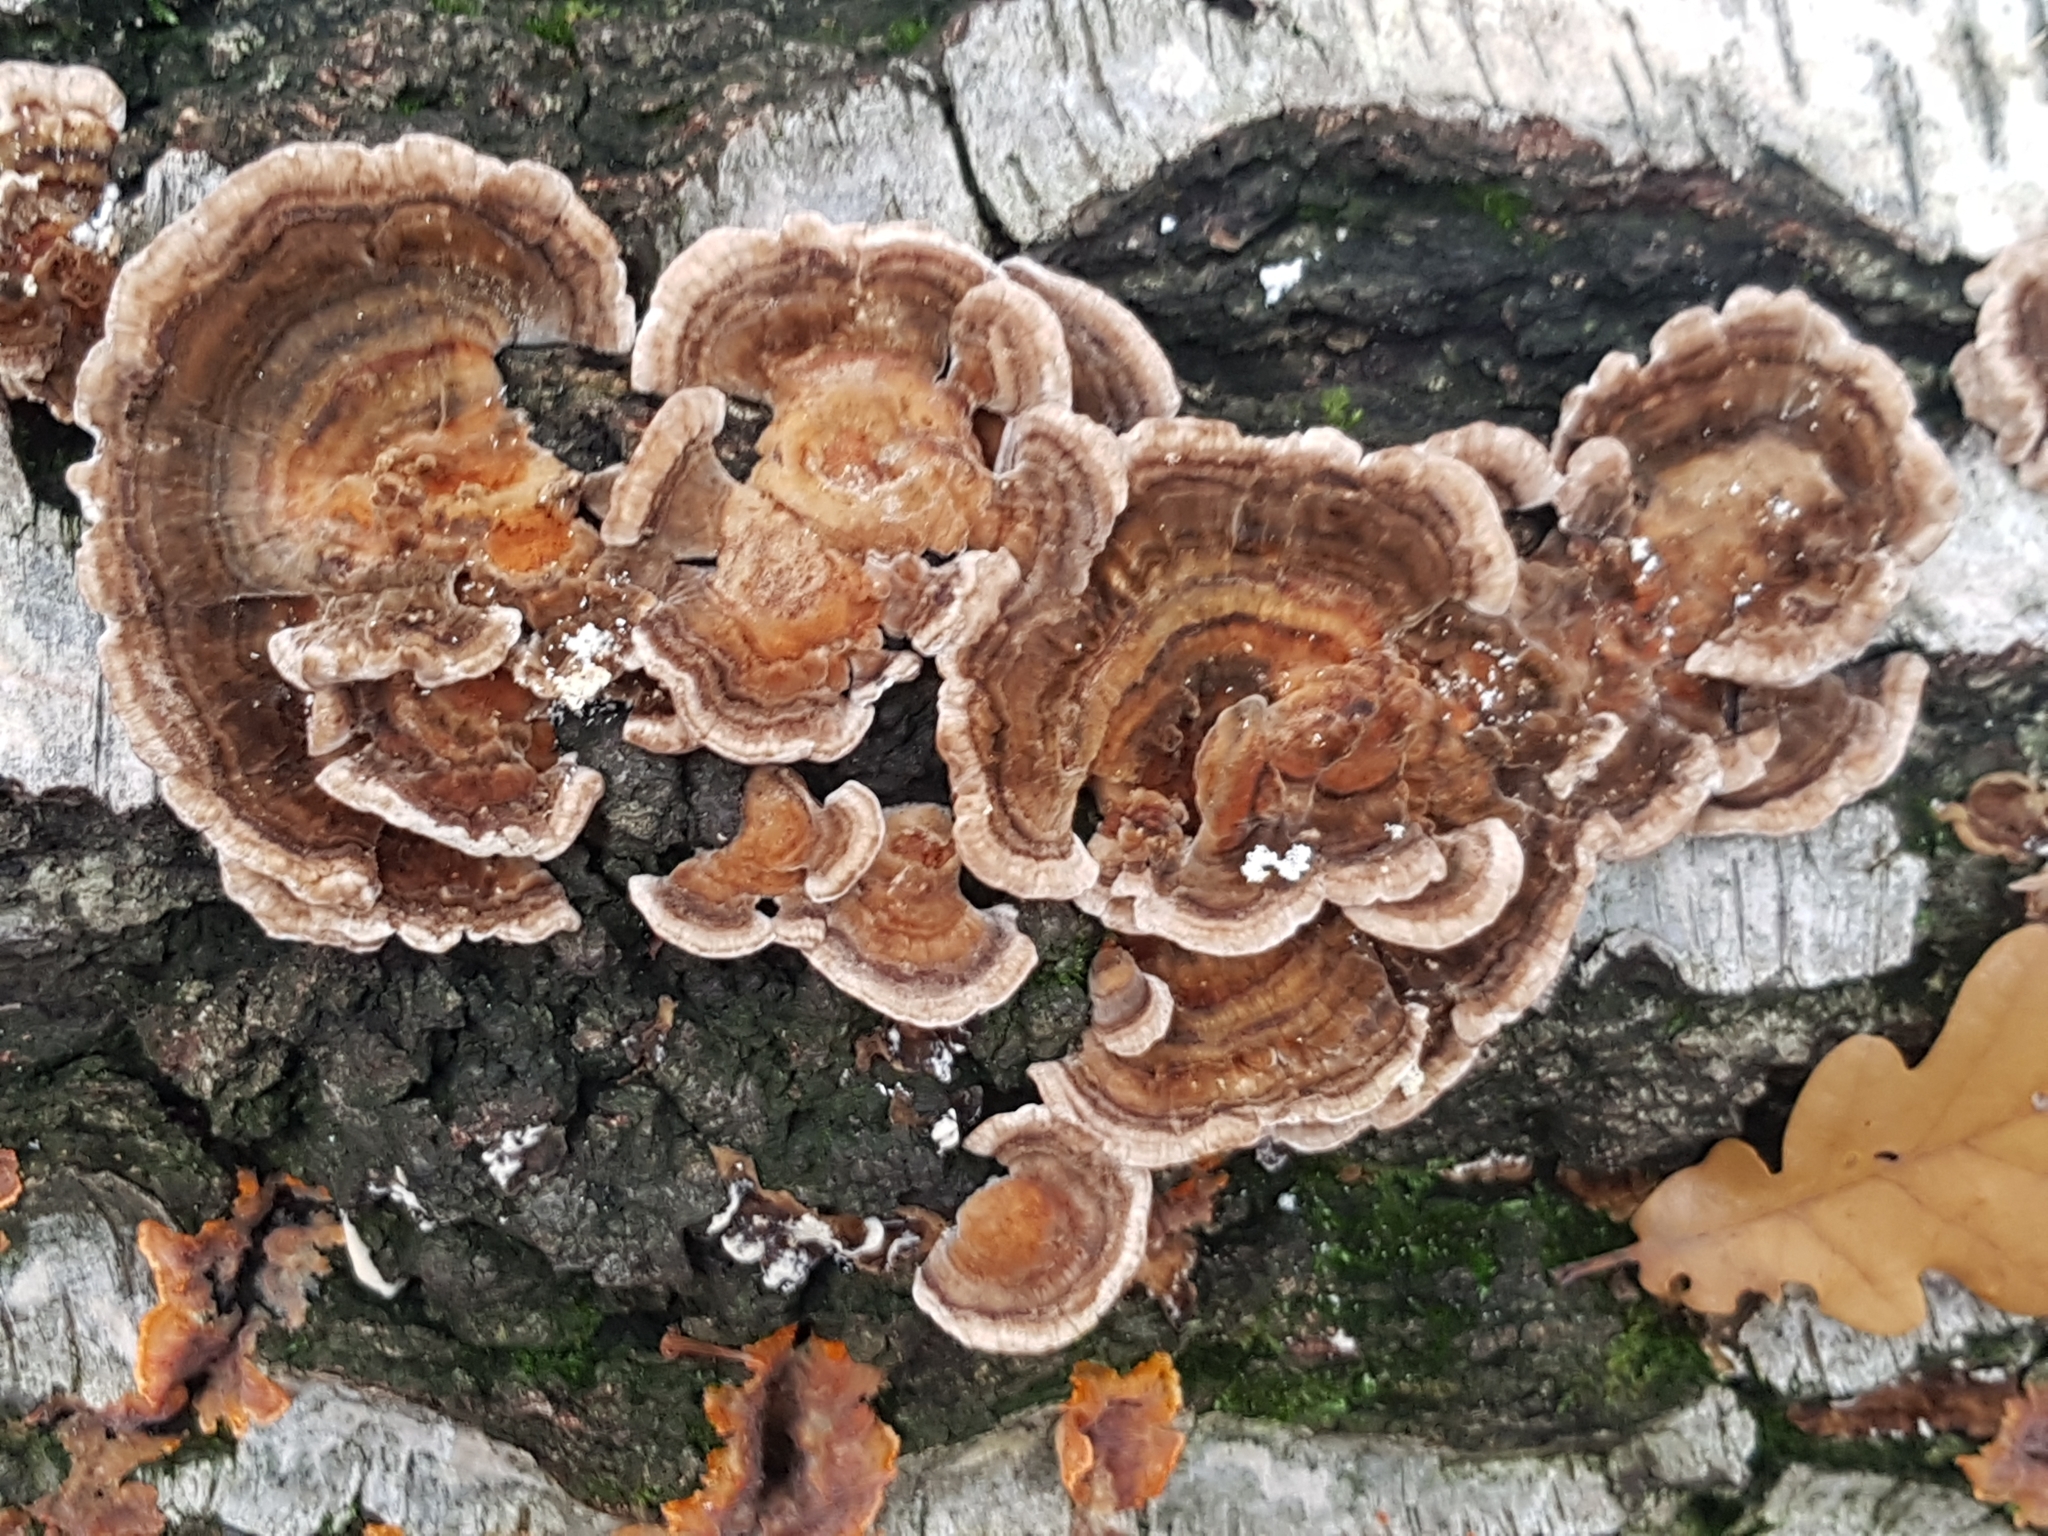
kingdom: Fungi
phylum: Basidiomycota
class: Agaricomycetes
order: Polyporales
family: Polyporaceae
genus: Trametes
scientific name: Trametes versicolor
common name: Turkeytail
